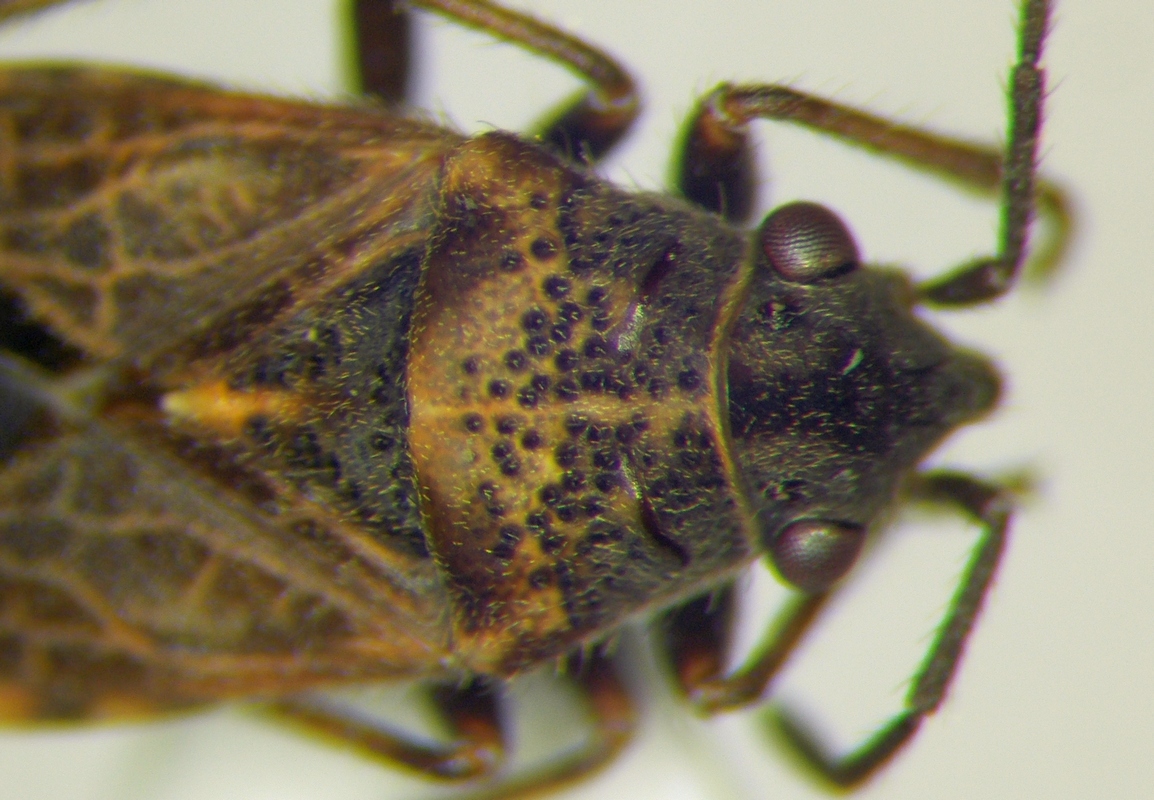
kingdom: Animalia
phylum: Arthropoda
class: Insecta
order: Hemiptera
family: Lygaeidae
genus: Lygaeosoma
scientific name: Lygaeosoma sardeum
